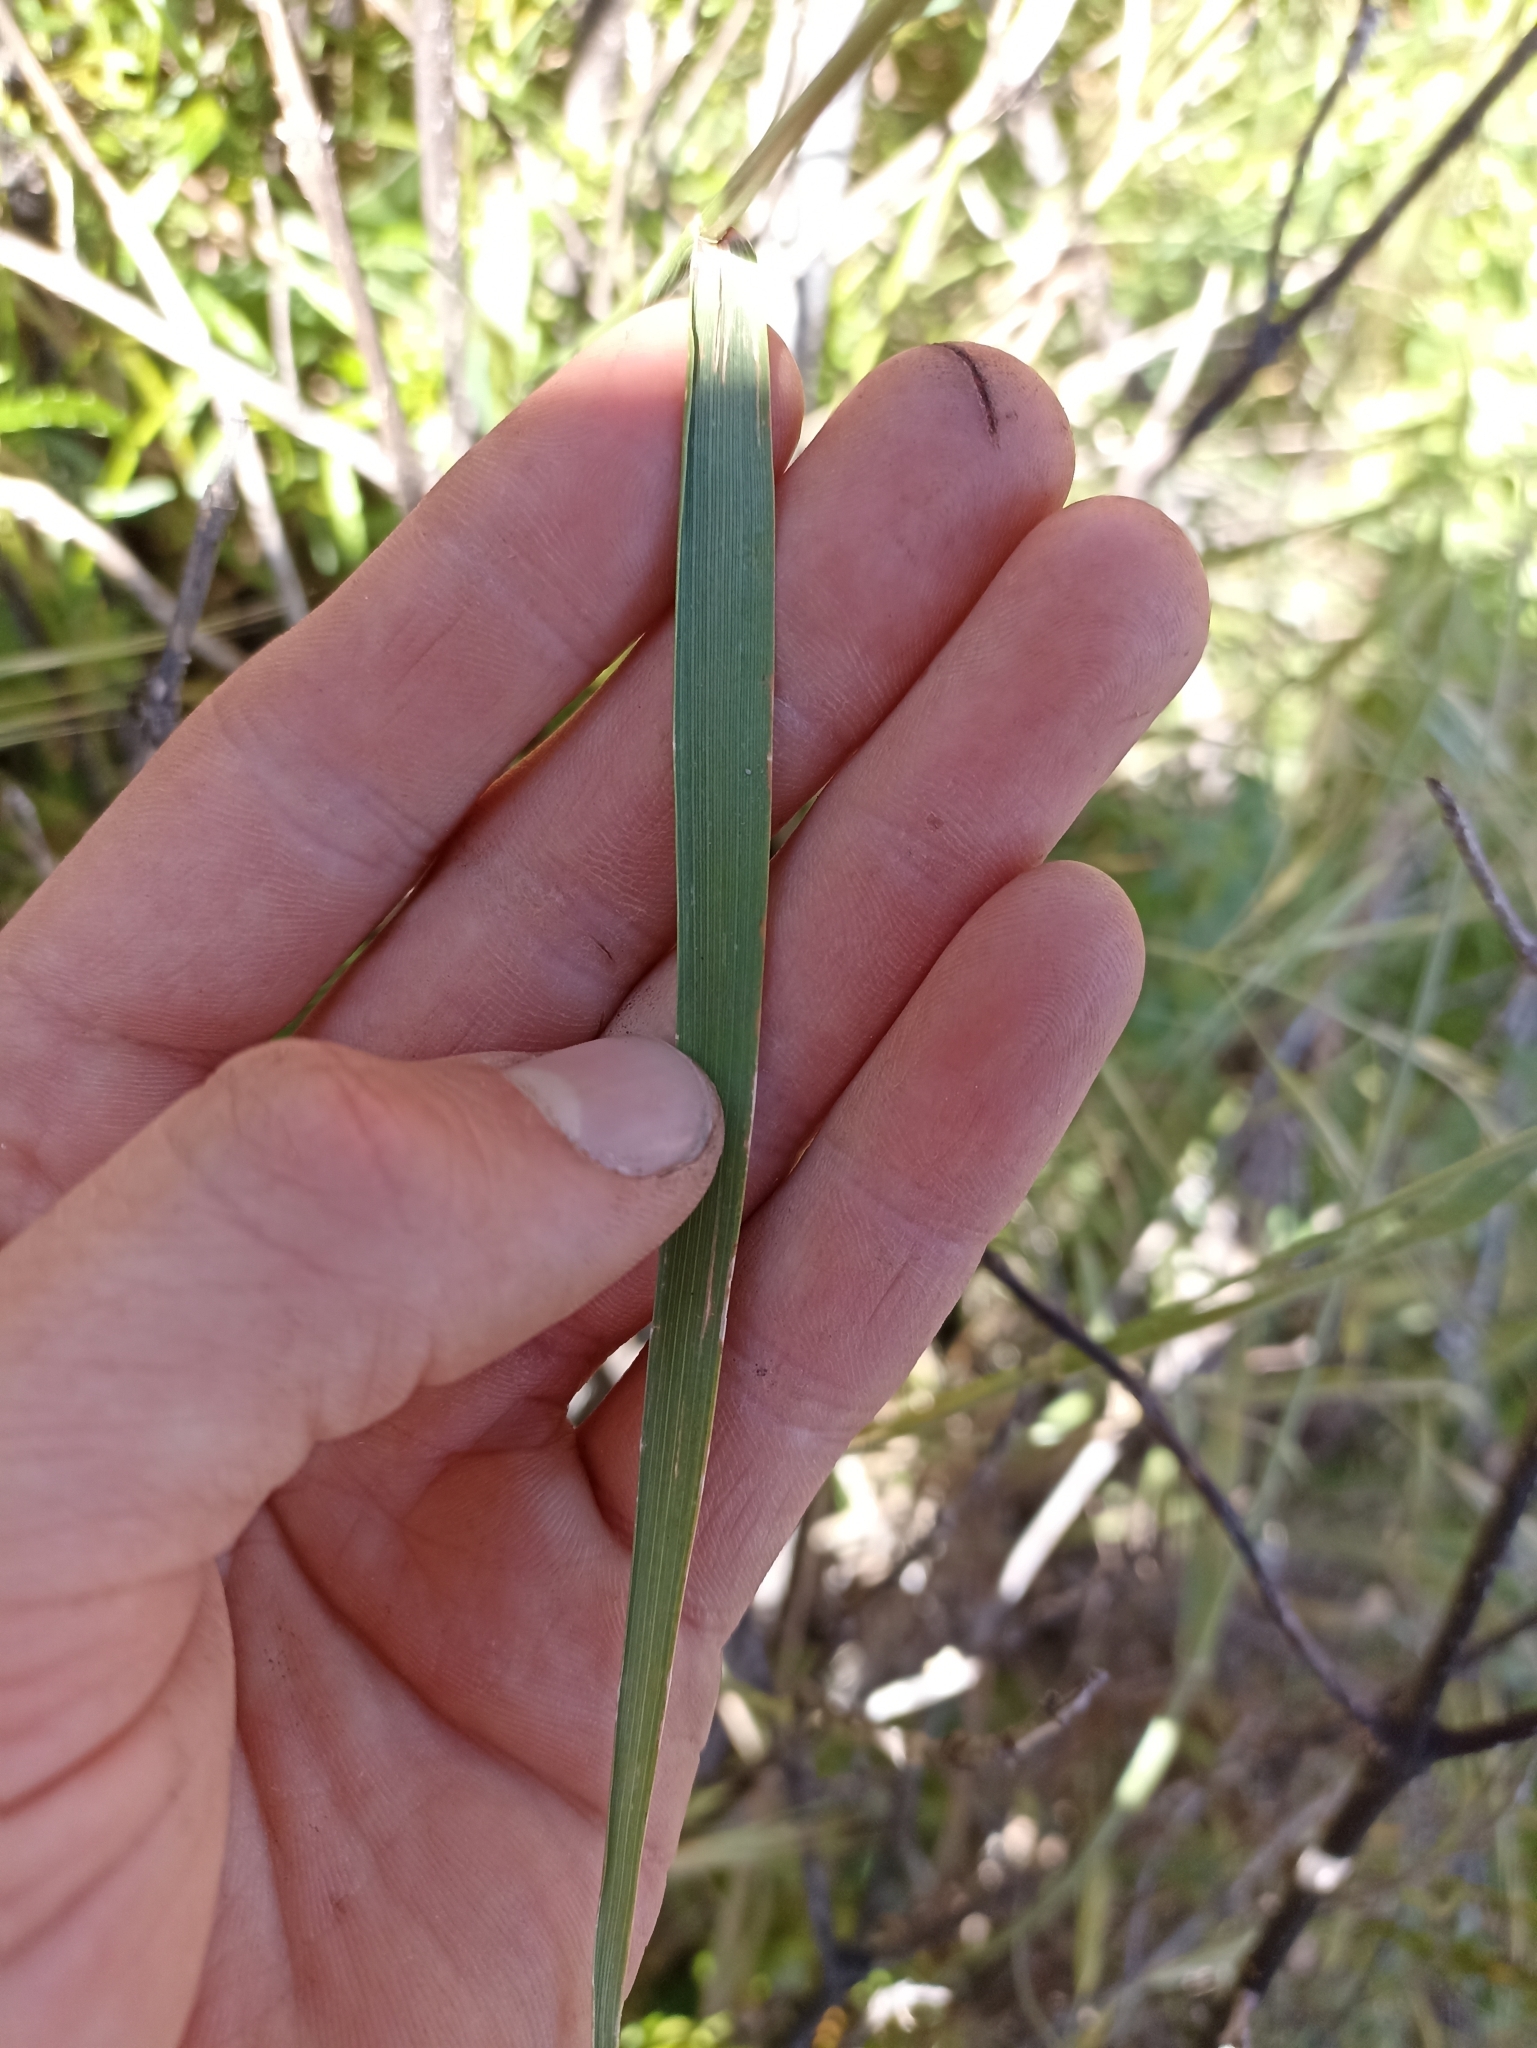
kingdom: Plantae
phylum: Tracheophyta
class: Liliopsida
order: Poales
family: Poaceae
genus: Dichelachne
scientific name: Dichelachne crinita
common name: Clovenfoot plumegrass
